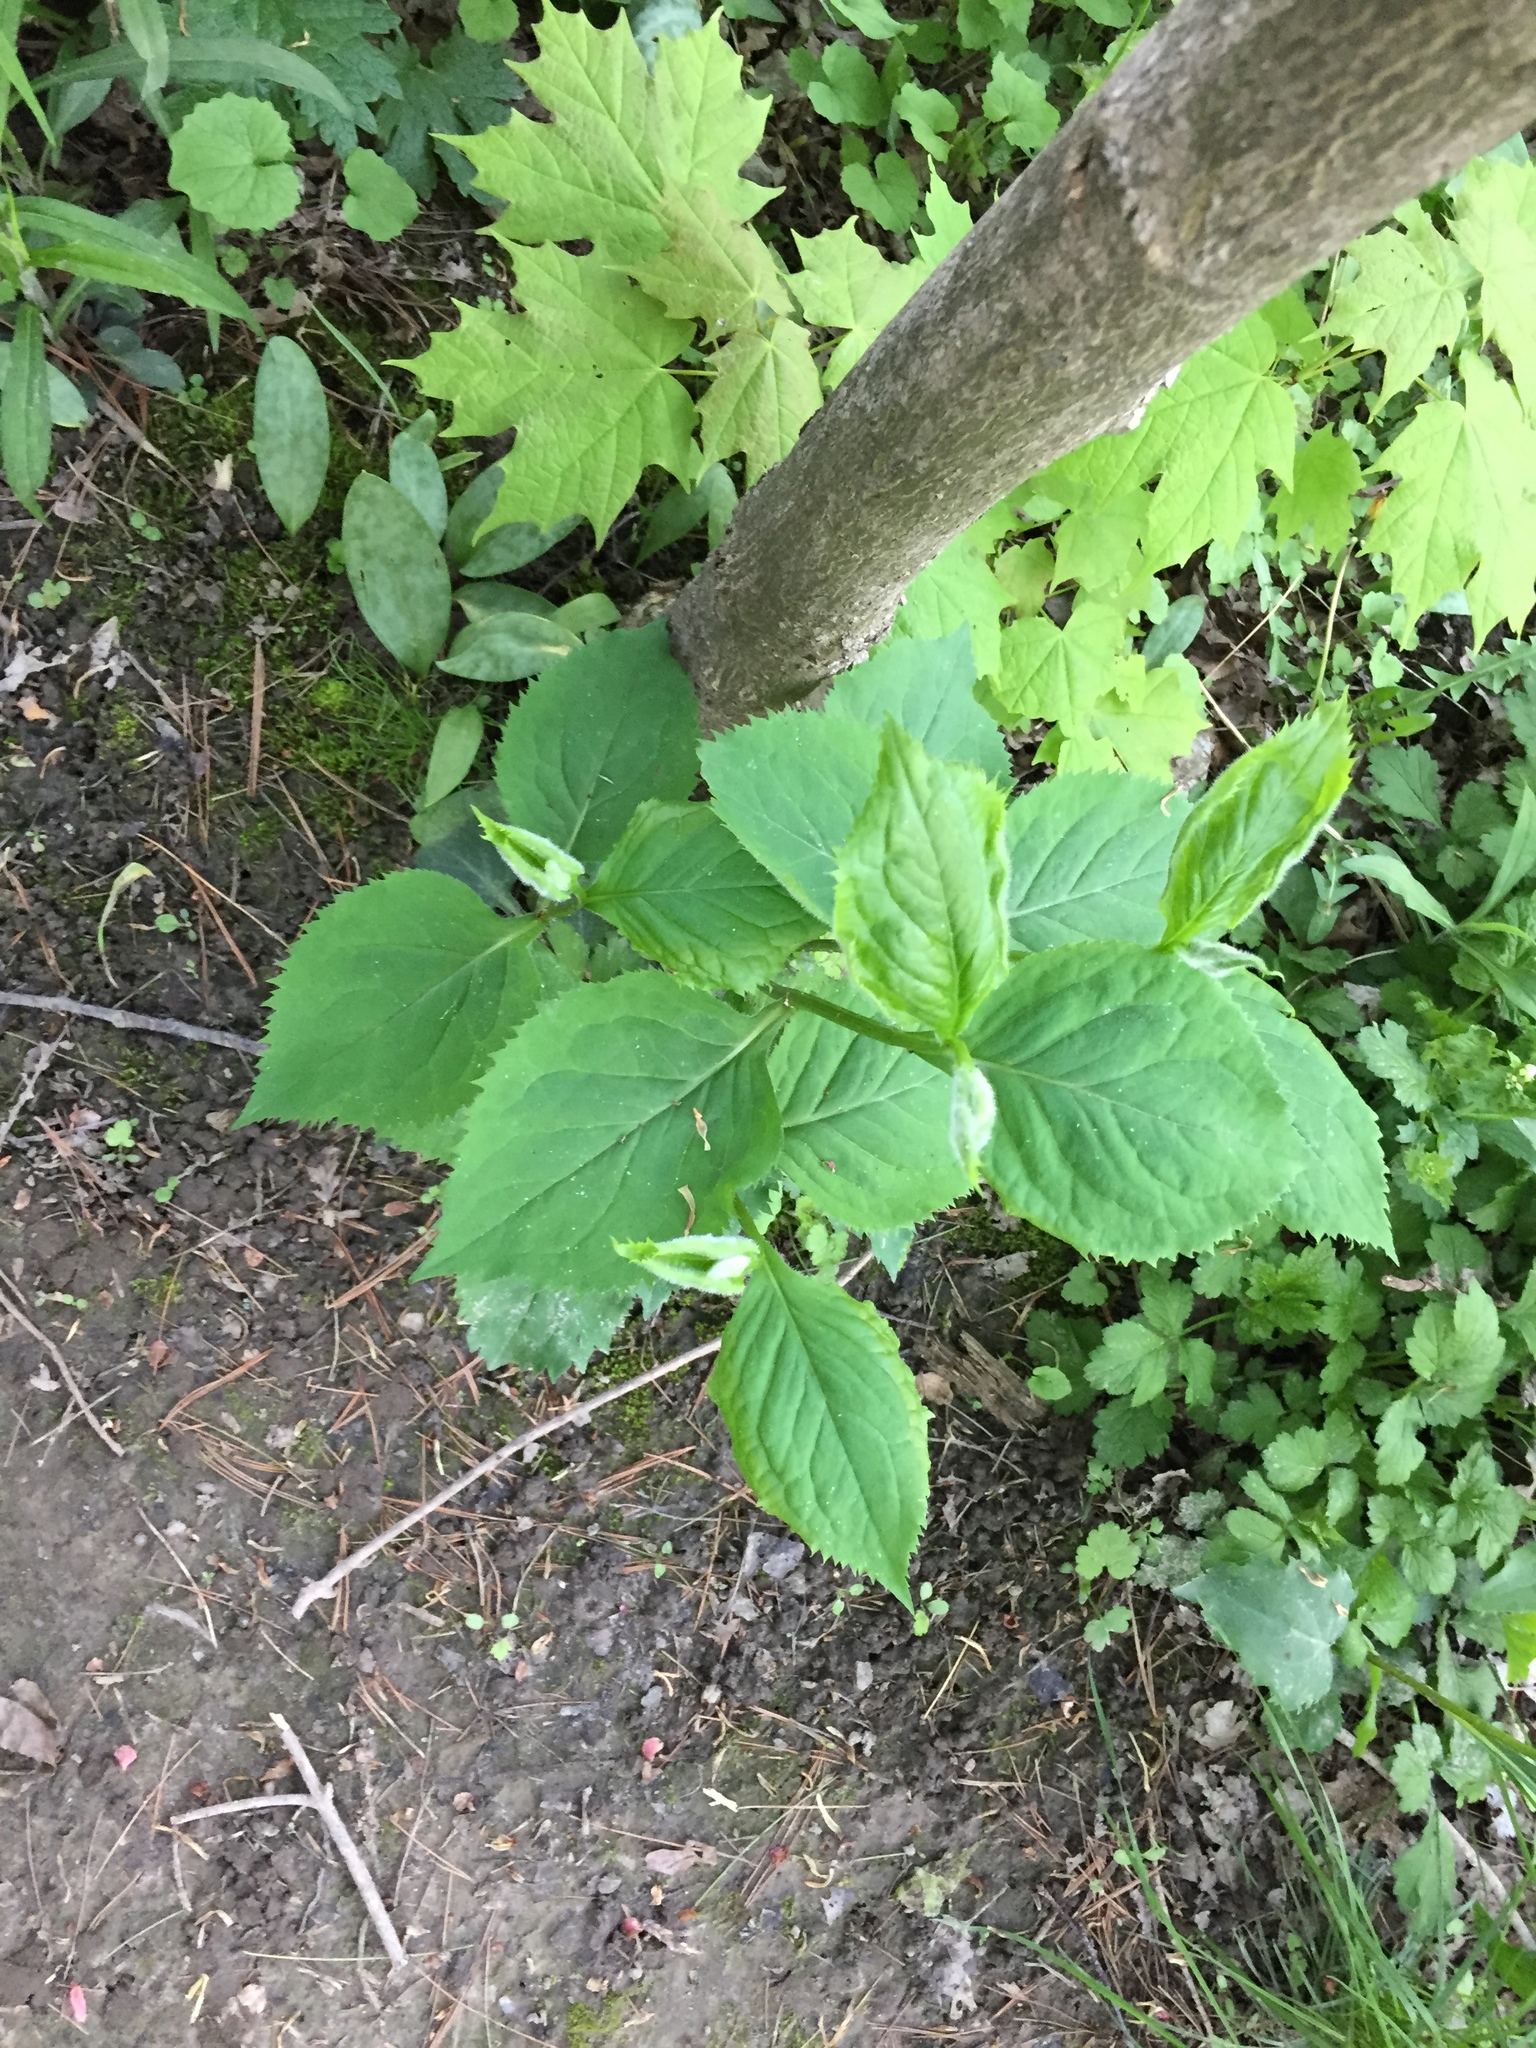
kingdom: Plantae
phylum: Tracheophyta
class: Magnoliopsida
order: Asterales
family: Asteraceae
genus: Solidago
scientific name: Solidago flexicaulis
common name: Zig-zag goldenrod
